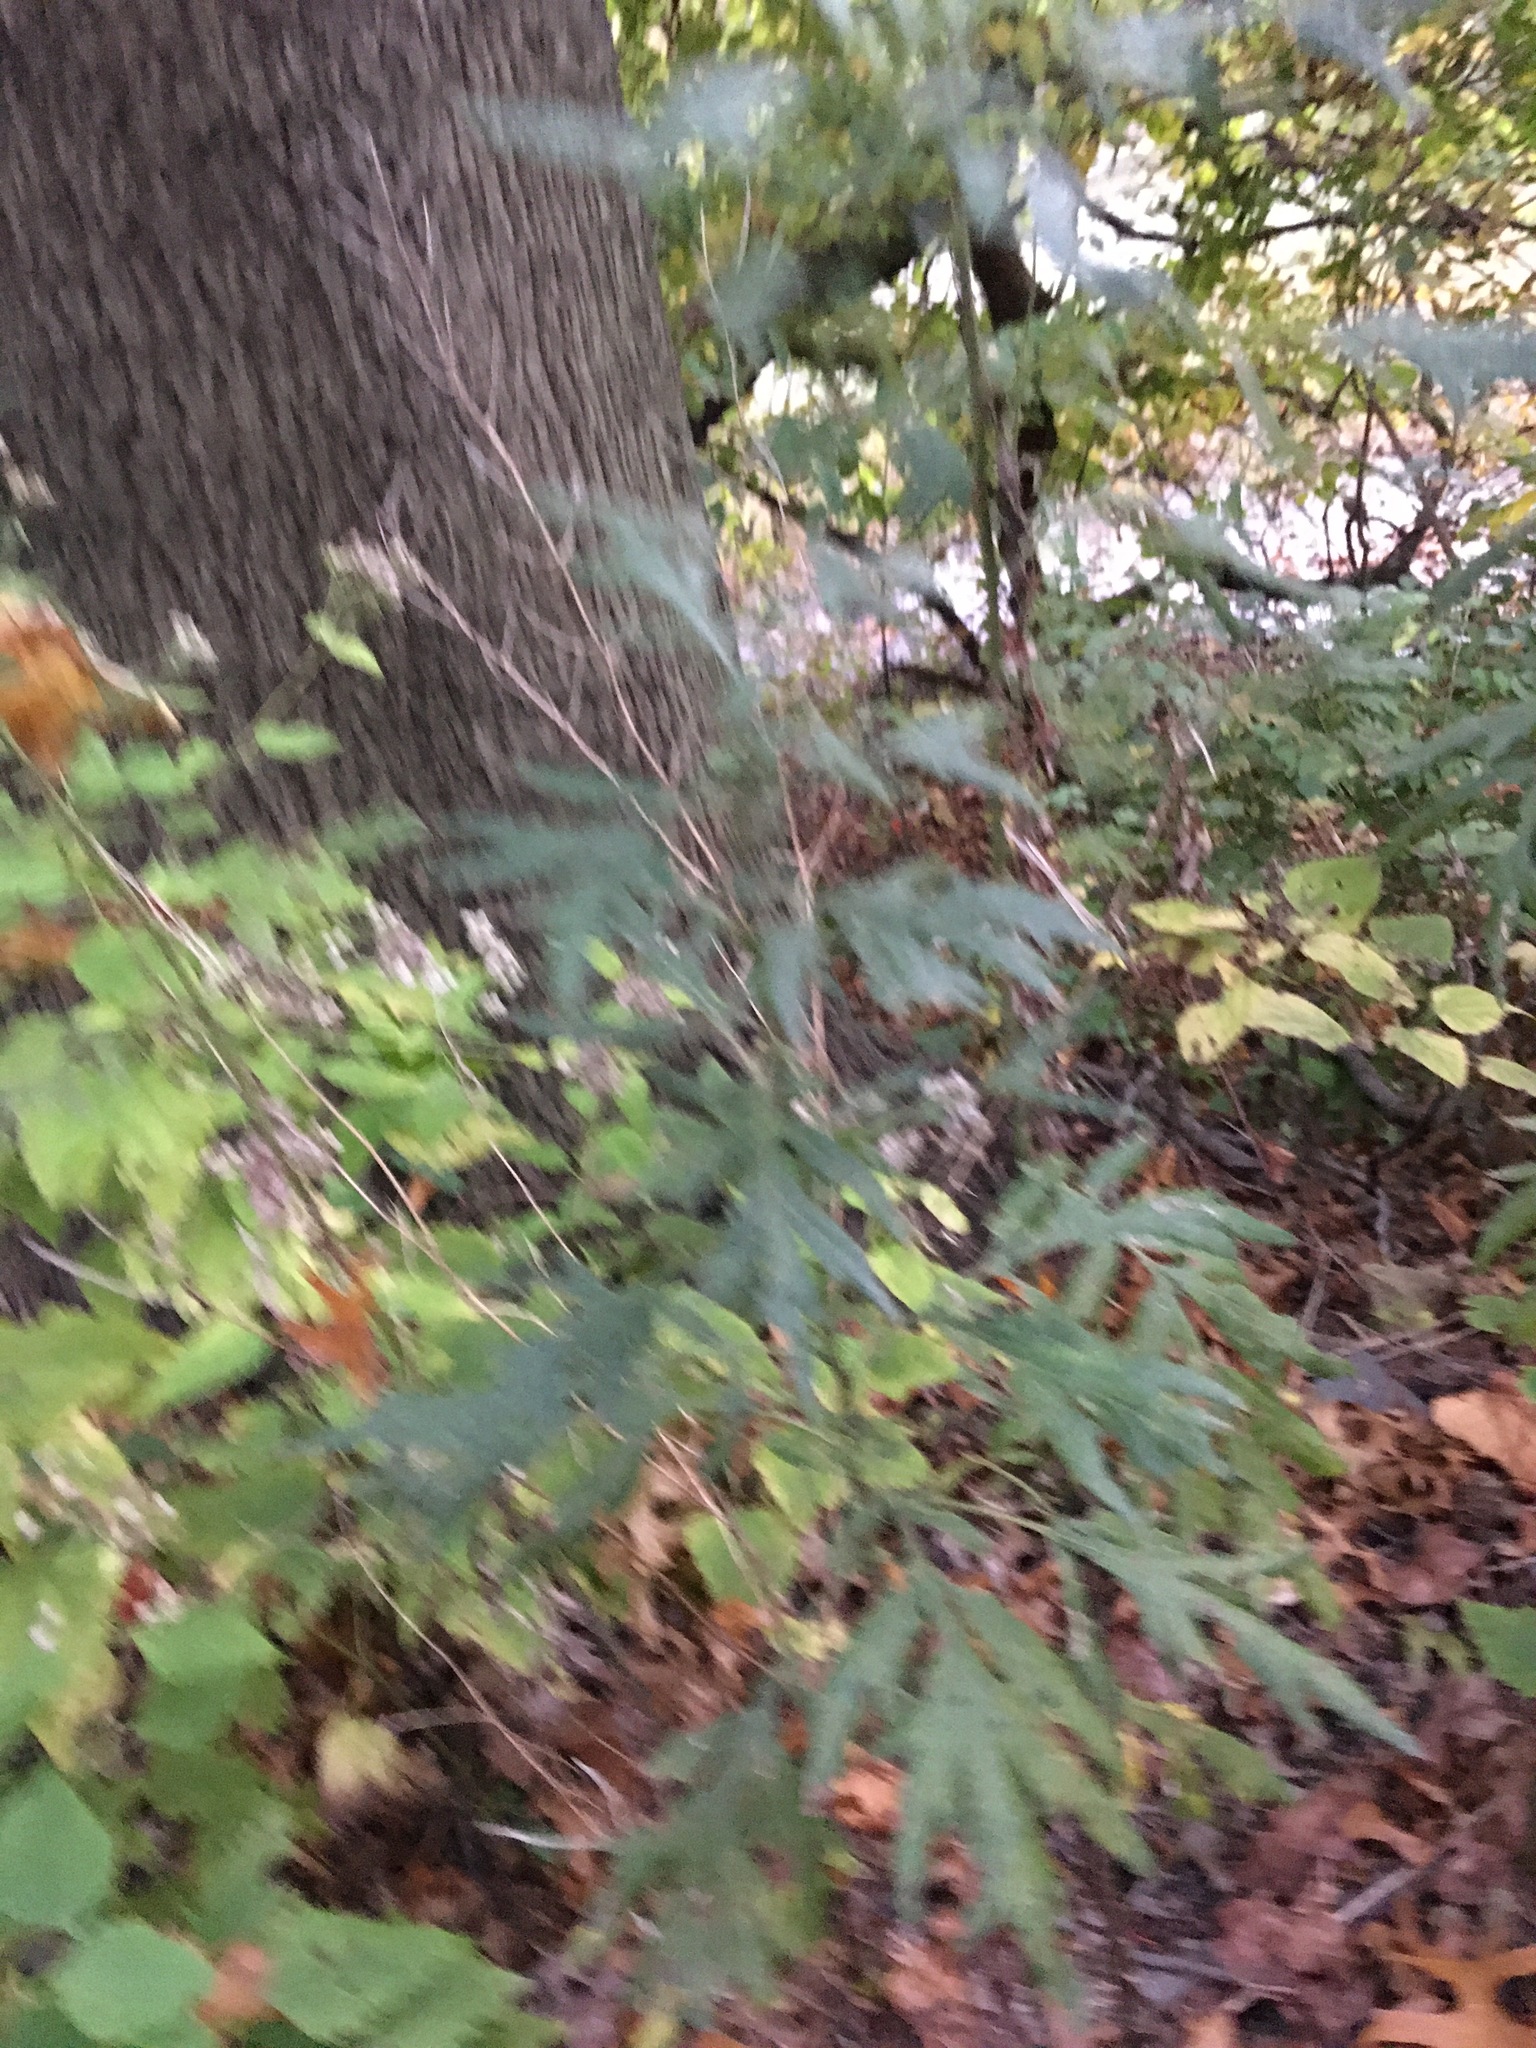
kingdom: Plantae
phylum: Tracheophyta
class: Magnoliopsida
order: Asterales
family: Asteraceae
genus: Artemisia
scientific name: Artemisia vulgaris
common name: Mugwort
